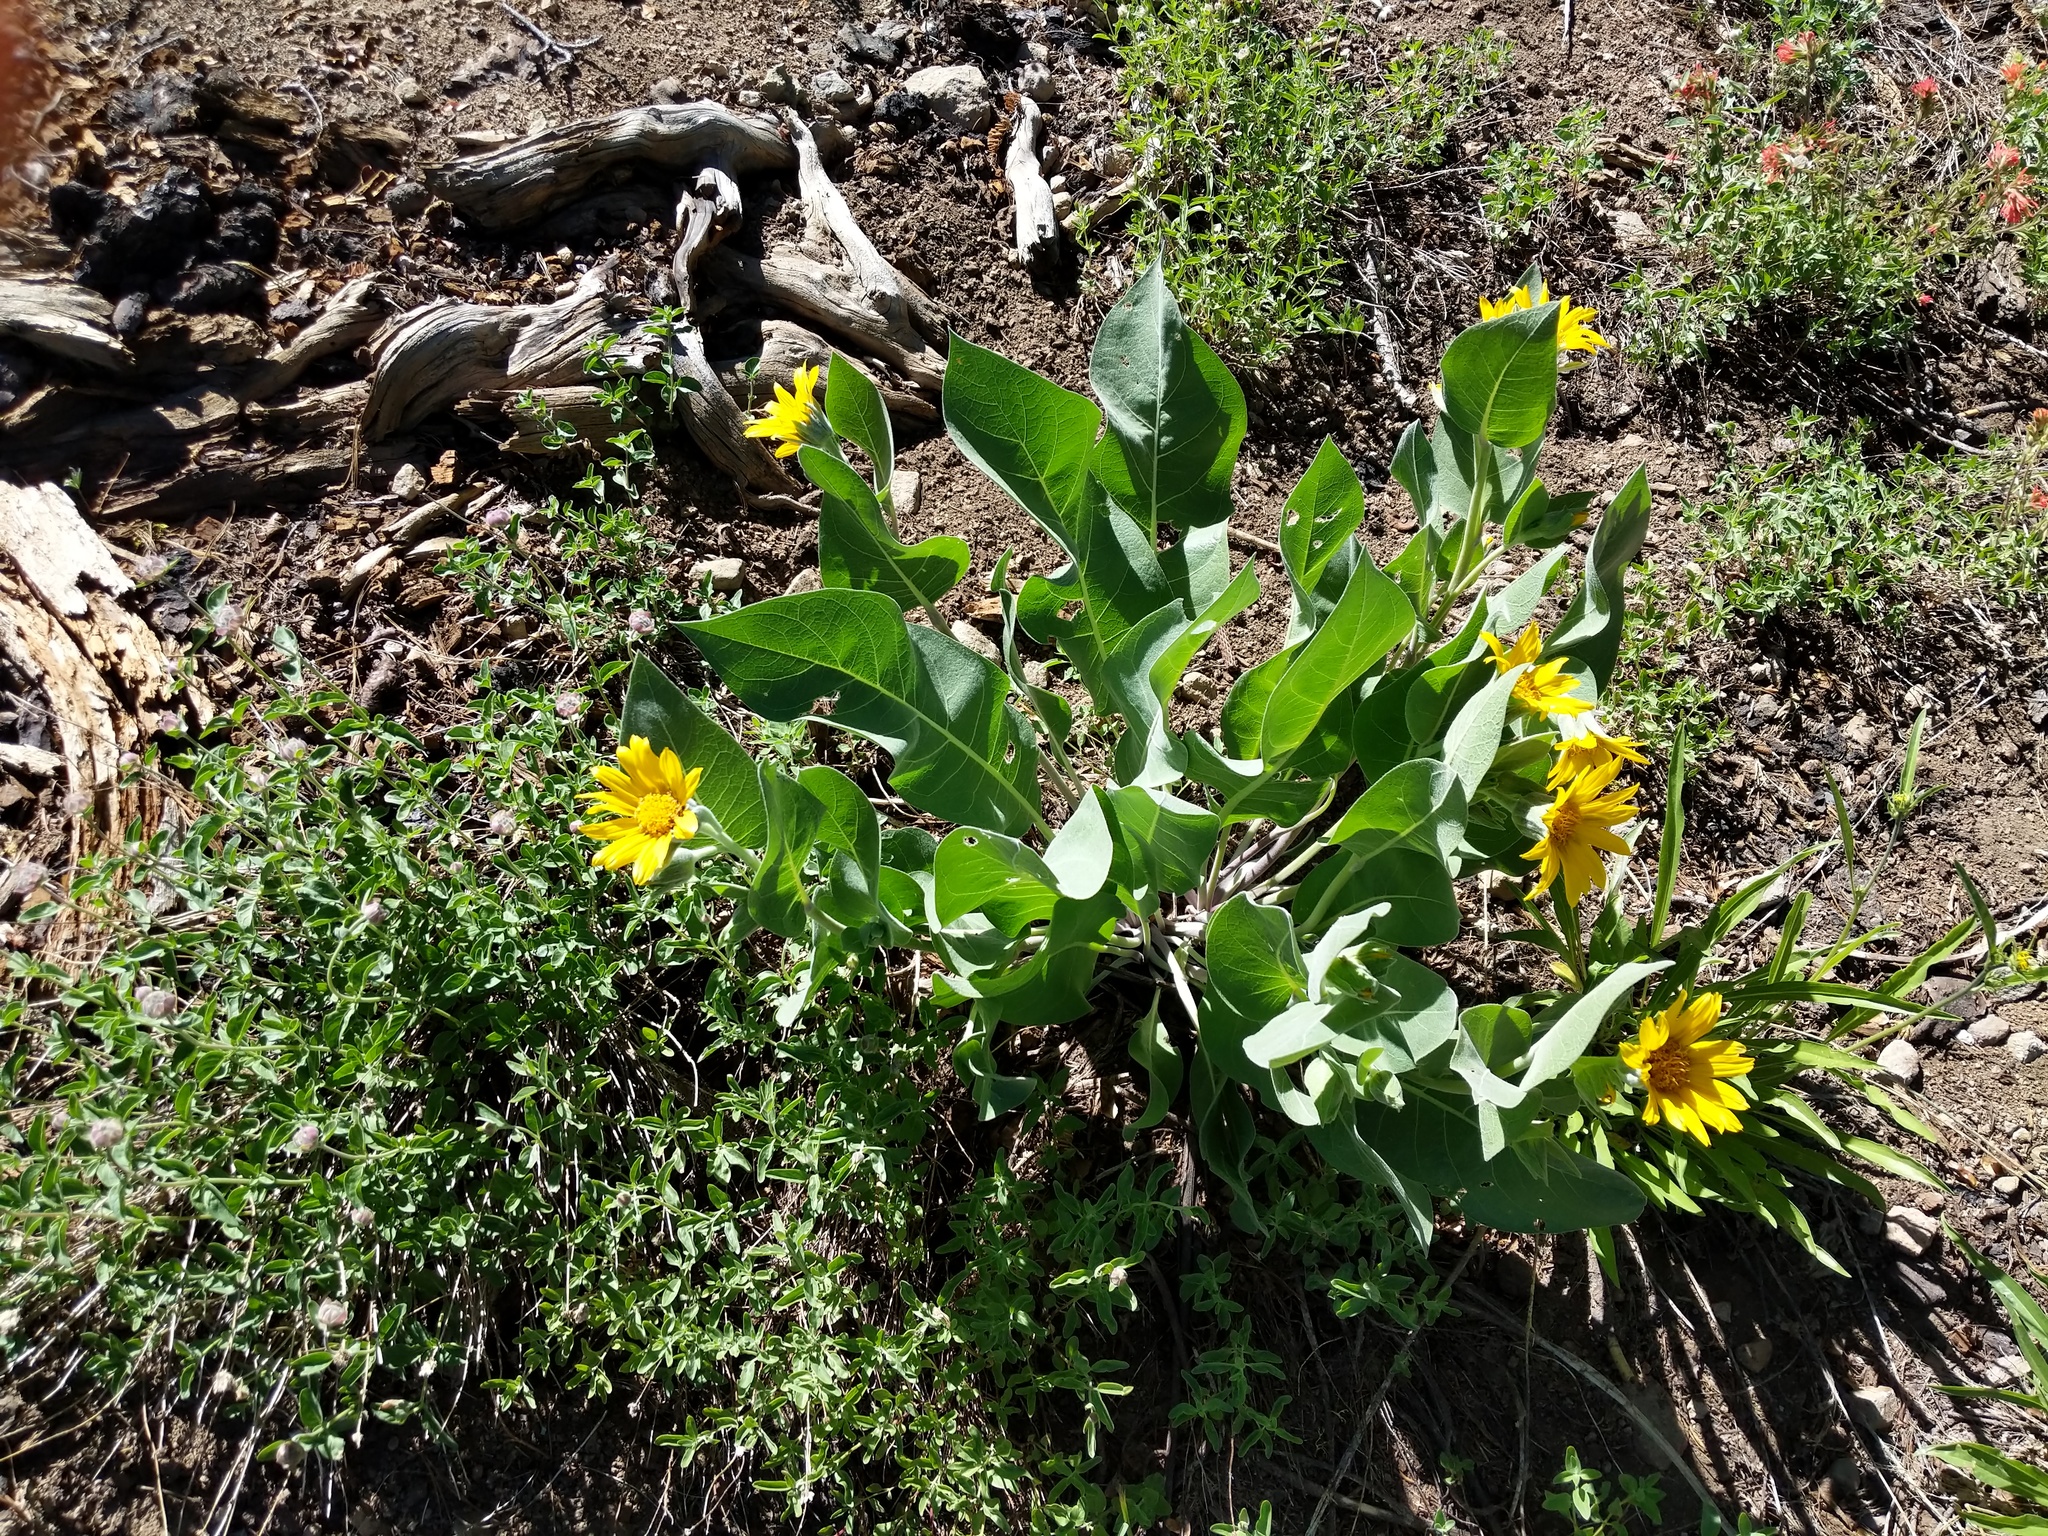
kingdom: Plantae
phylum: Tracheophyta
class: Magnoliopsida
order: Asterales
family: Asteraceae
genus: Wyethia
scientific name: Wyethia mollis
